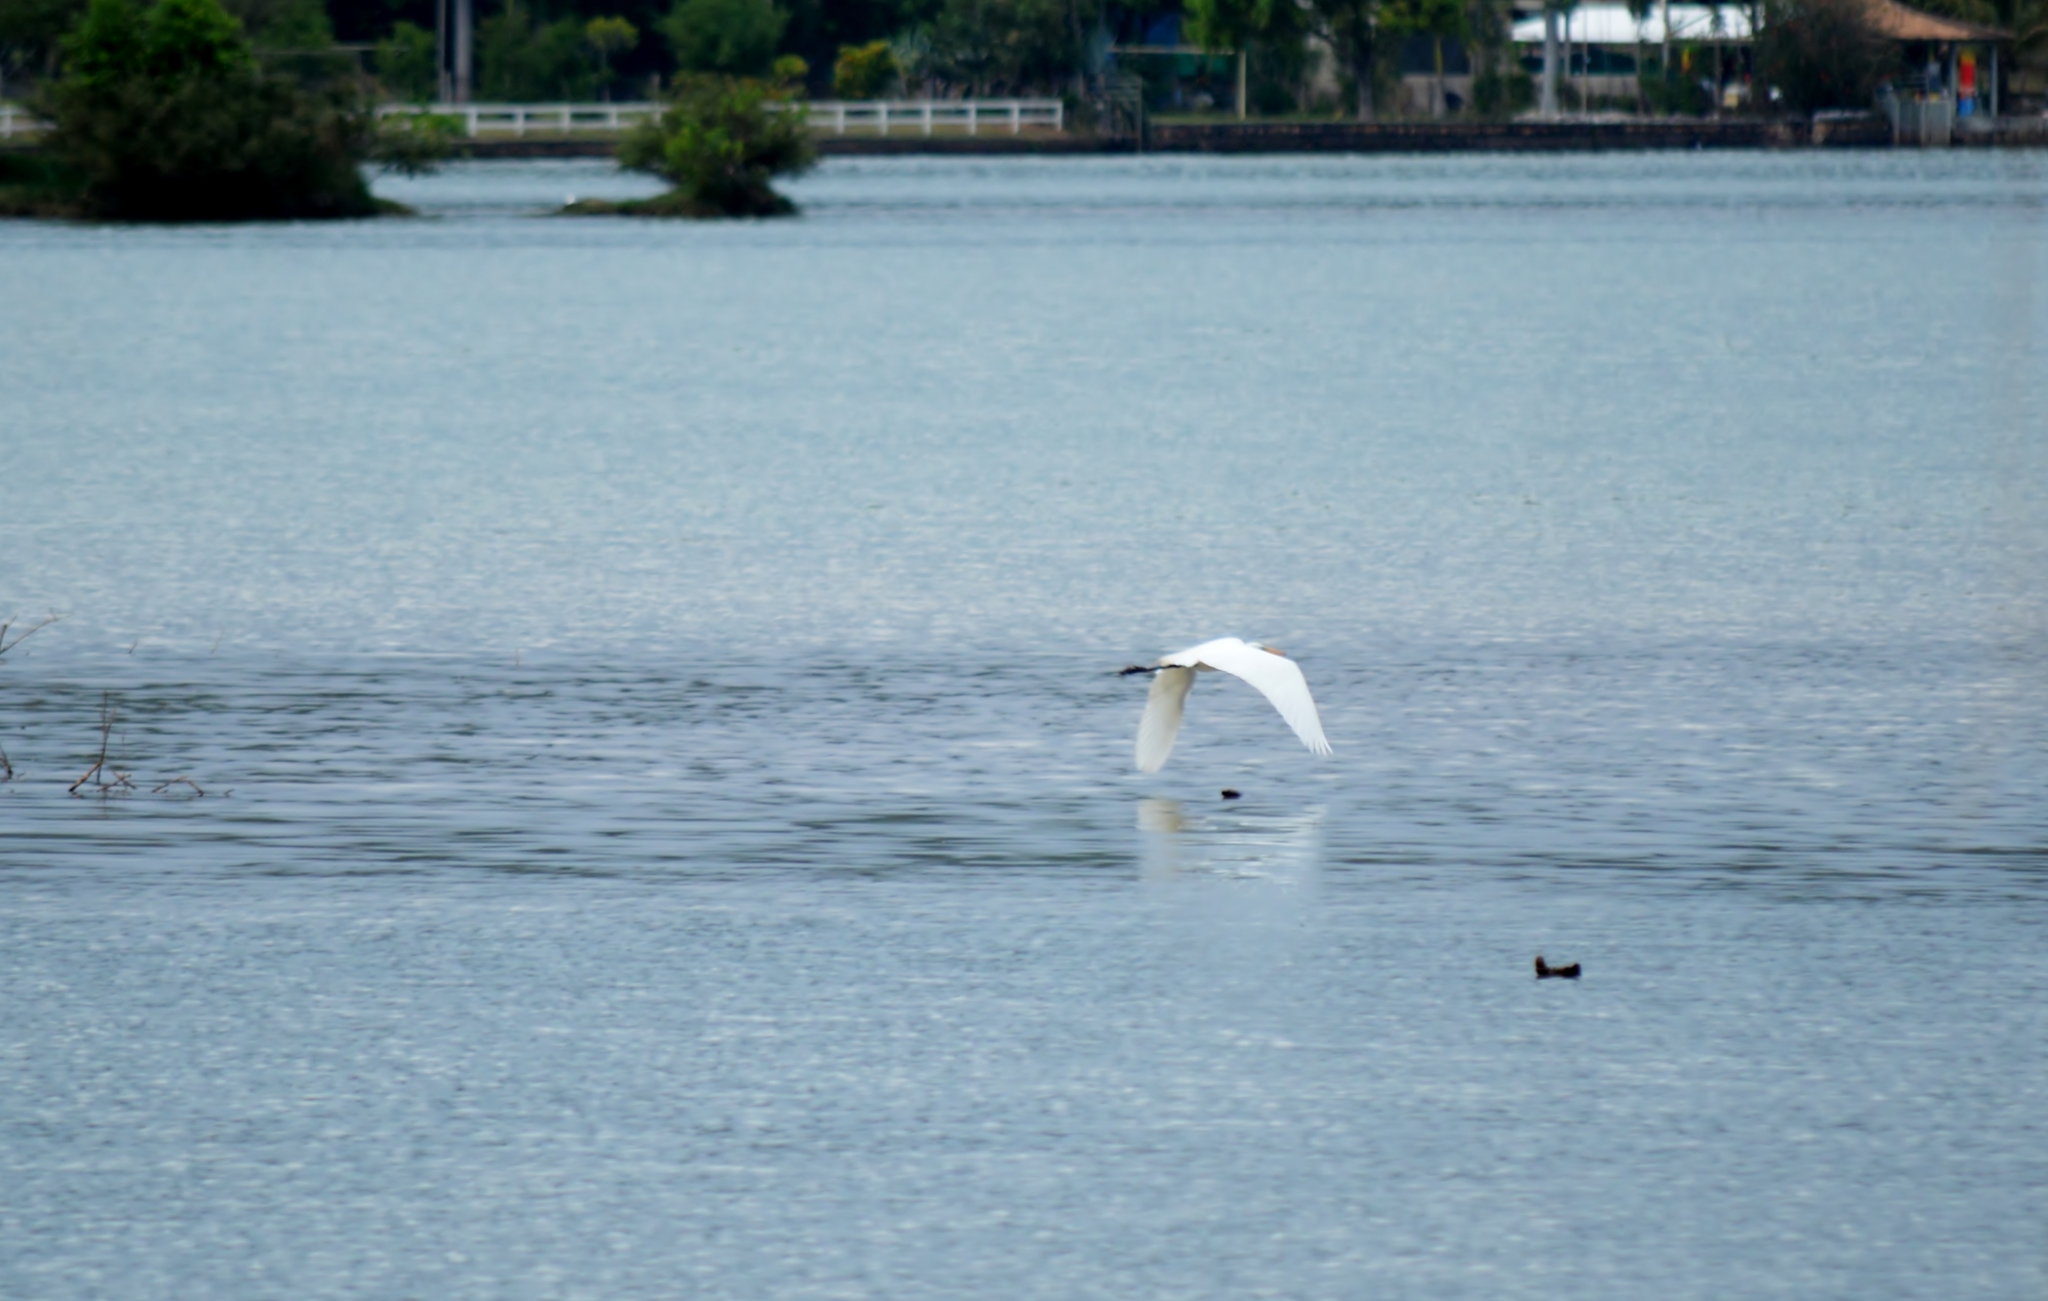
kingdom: Animalia
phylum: Chordata
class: Aves
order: Pelecaniformes
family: Ardeidae
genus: Ardea
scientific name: Ardea alba
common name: Great egret
